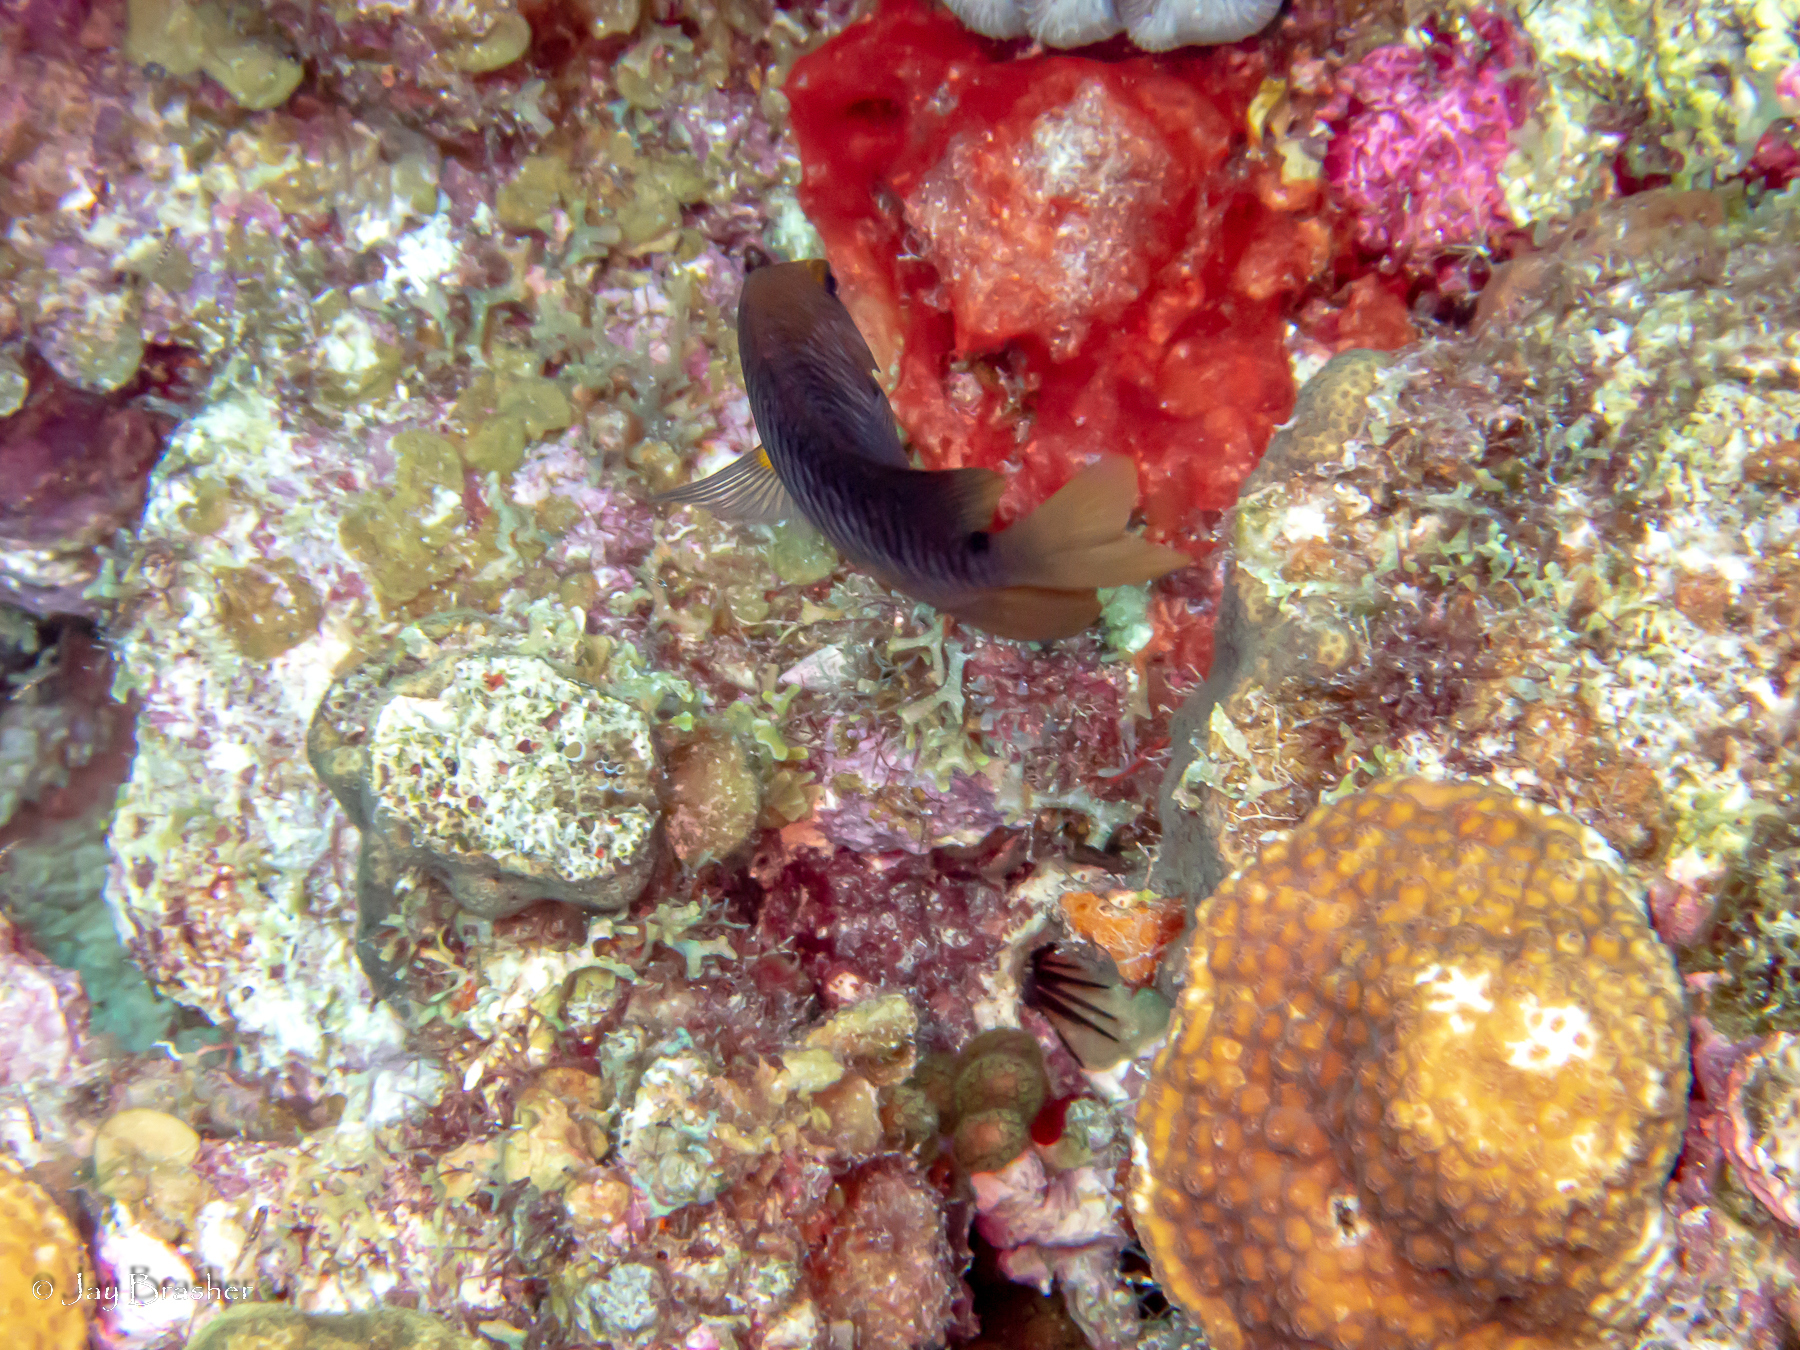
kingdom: Animalia
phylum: Chordata
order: Perciformes
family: Pomacentridae
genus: Stegastes
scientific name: Stegastes planifrons
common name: Threespot damselfish
